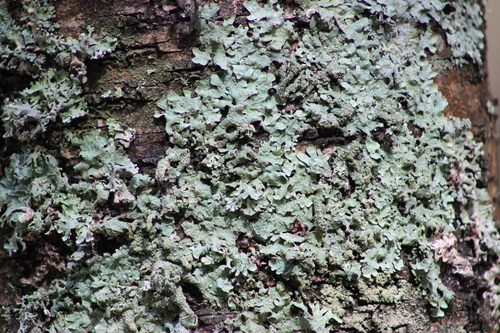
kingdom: Fungi
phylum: Ascomycota
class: Lecanoromycetes
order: Lecanorales
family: Parmeliaceae
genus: Parmelia
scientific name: Parmelia
